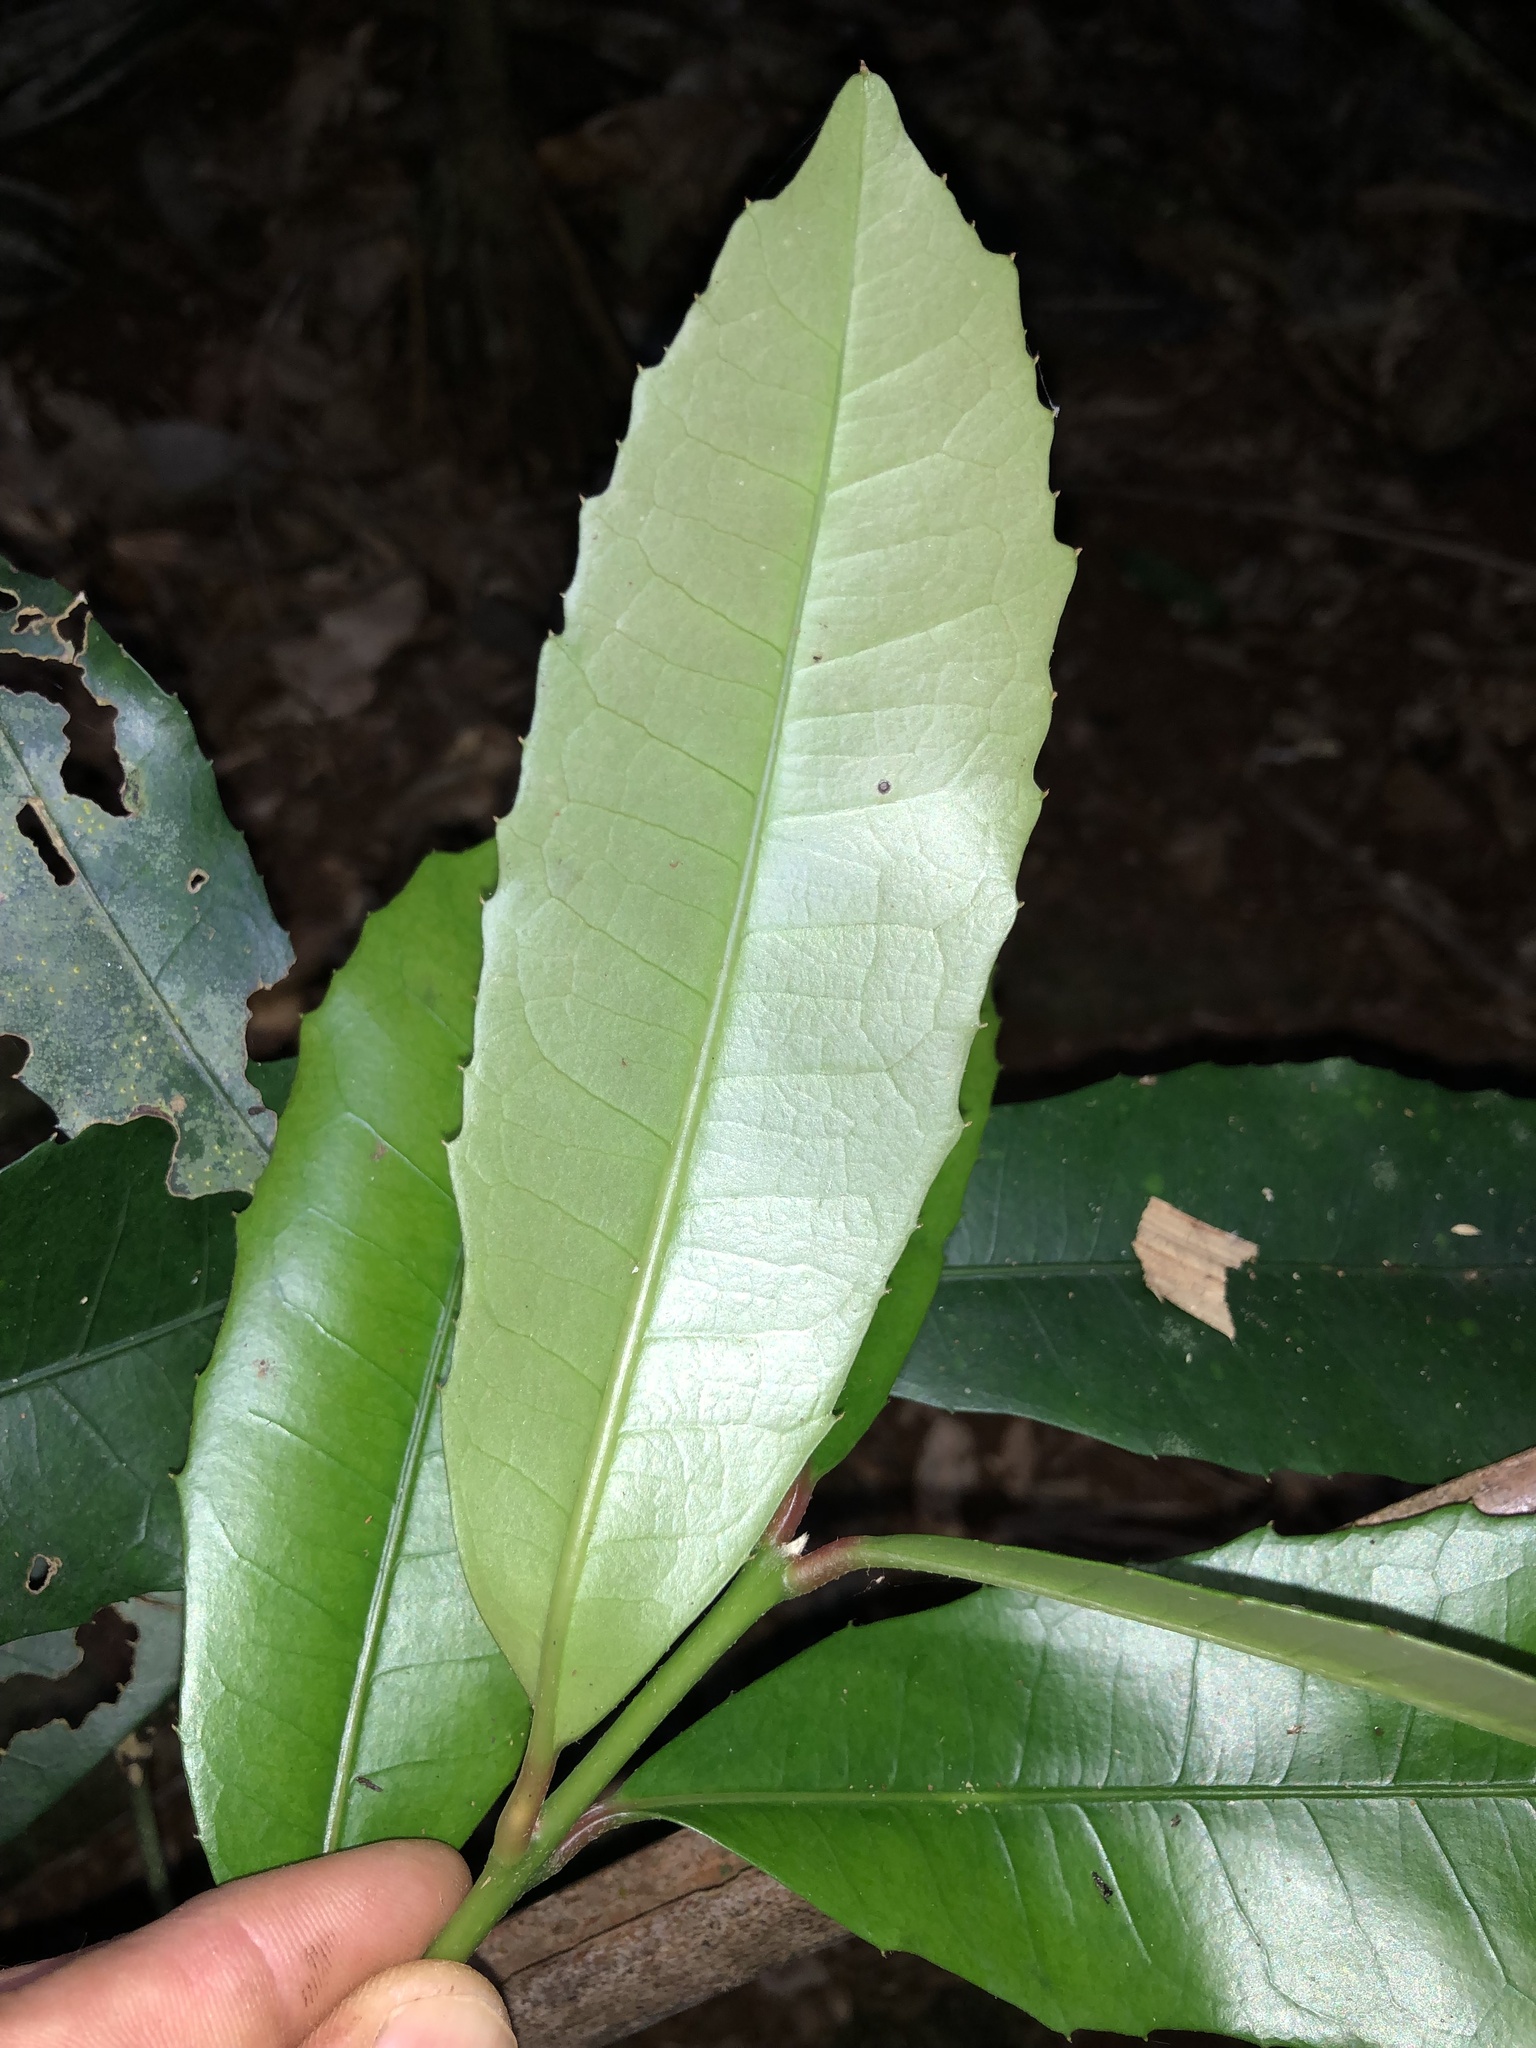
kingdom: Plantae
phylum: Tracheophyta
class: Magnoliopsida
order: Laurales
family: Monimiaceae
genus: Wilkiea
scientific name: Wilkiea austroqueenslandica
